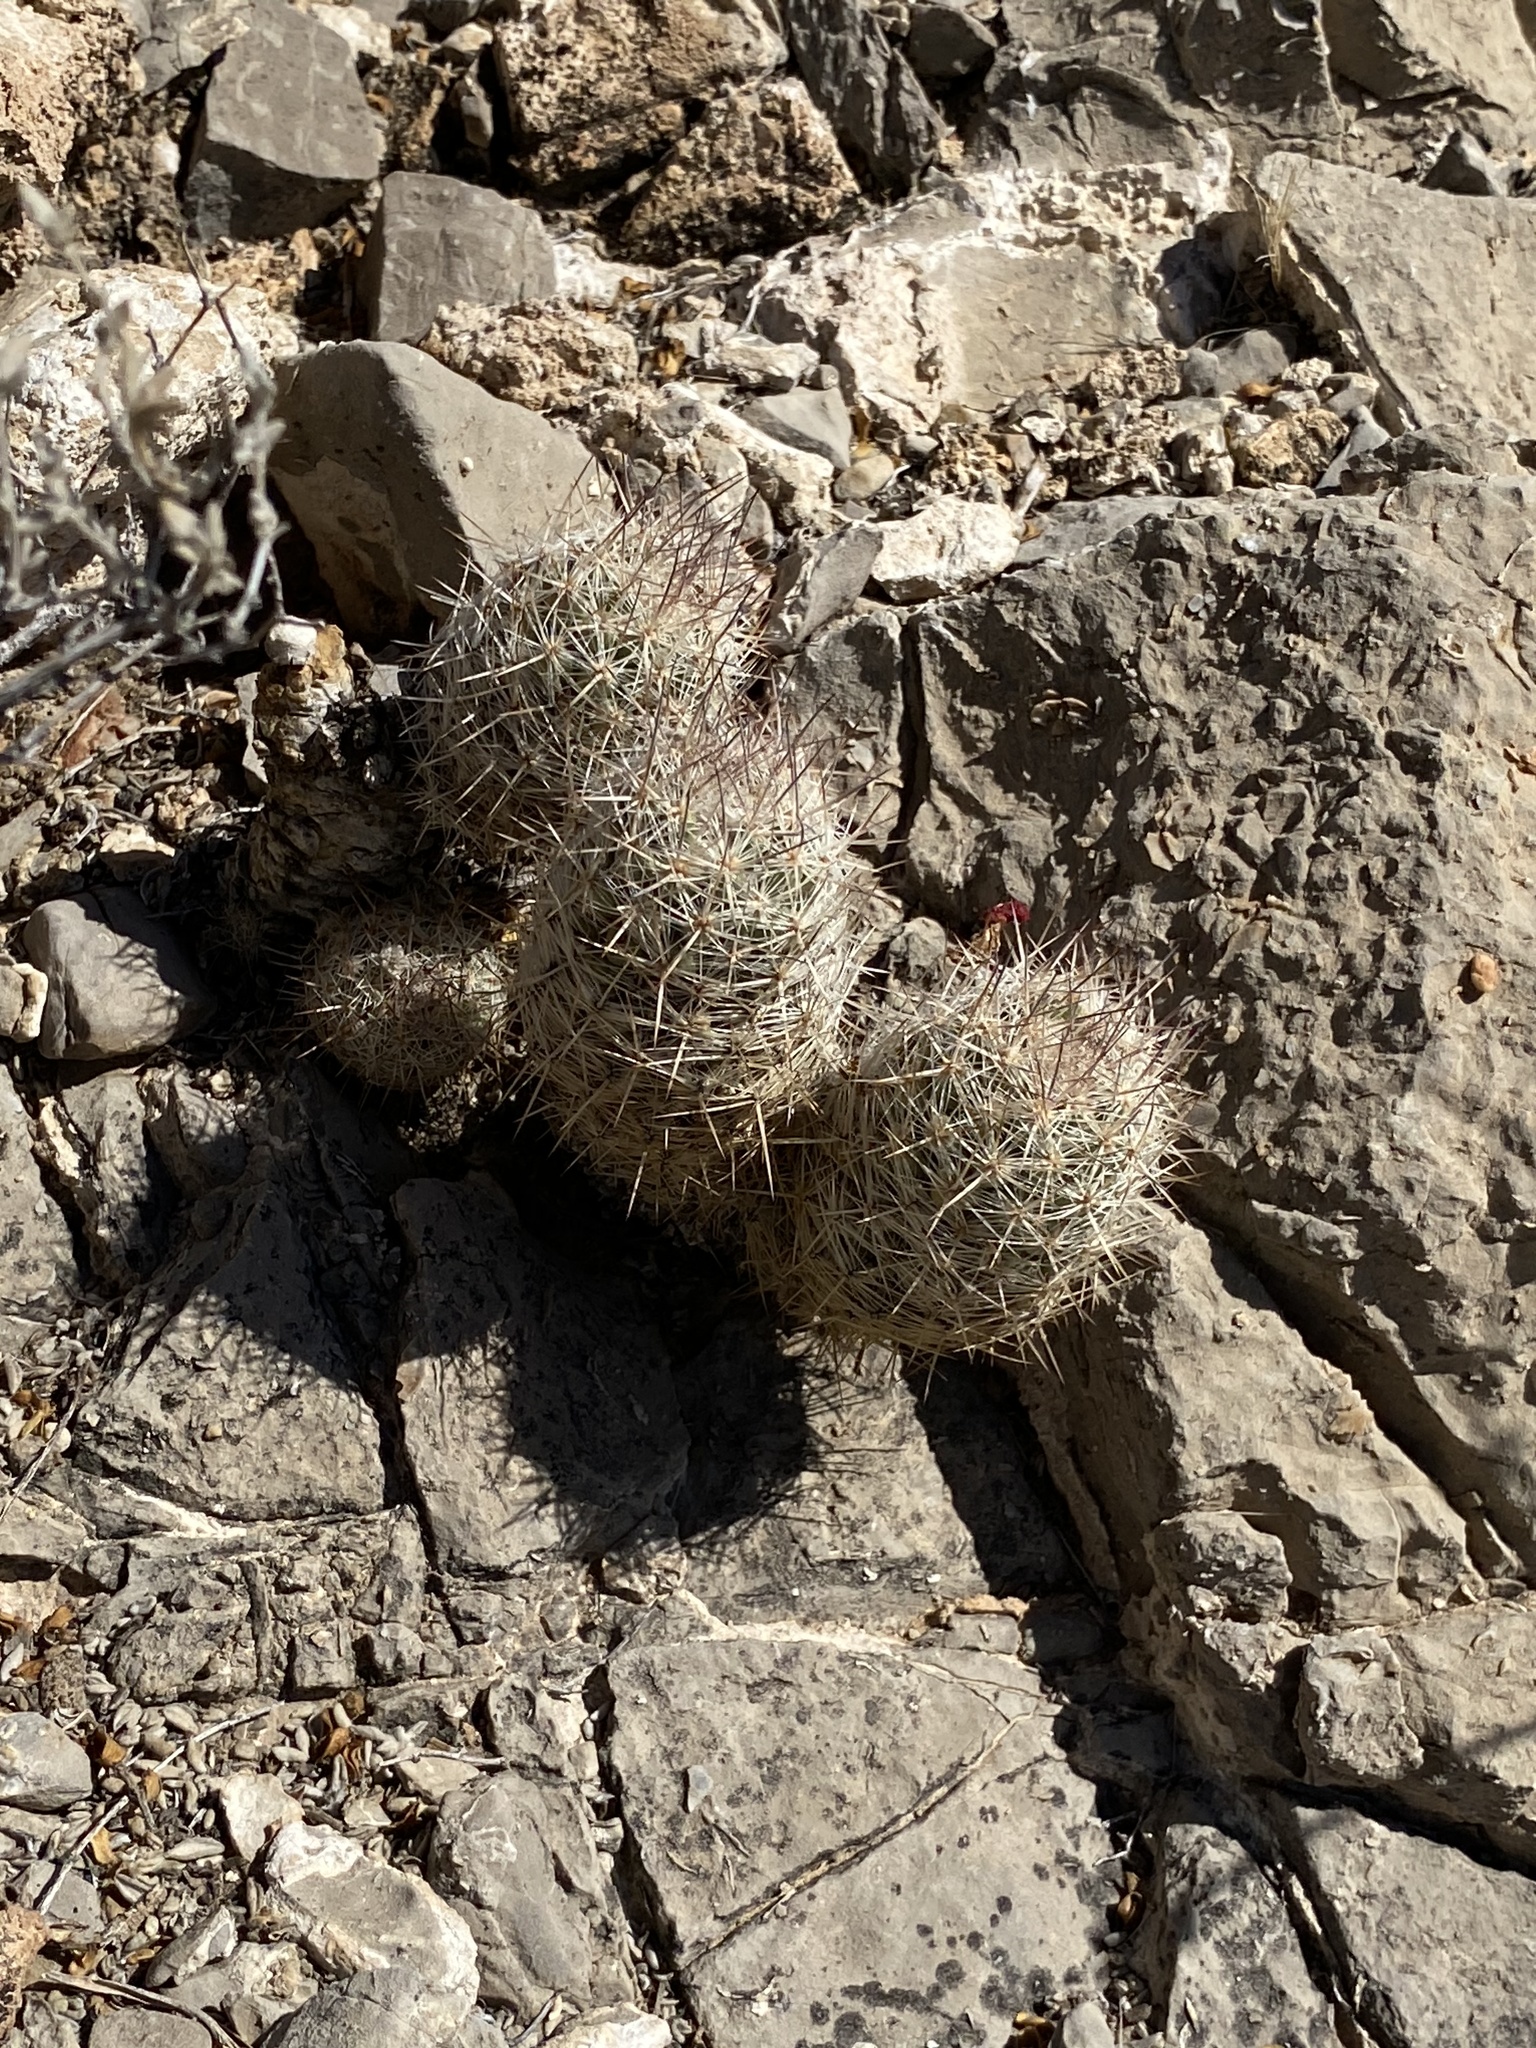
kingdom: Plantae
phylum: Tracheophyta
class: Magnoliopsida
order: Caryophyllales
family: Cactaceae
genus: Pelecyphora
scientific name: Pelecyphora tuberculosa
